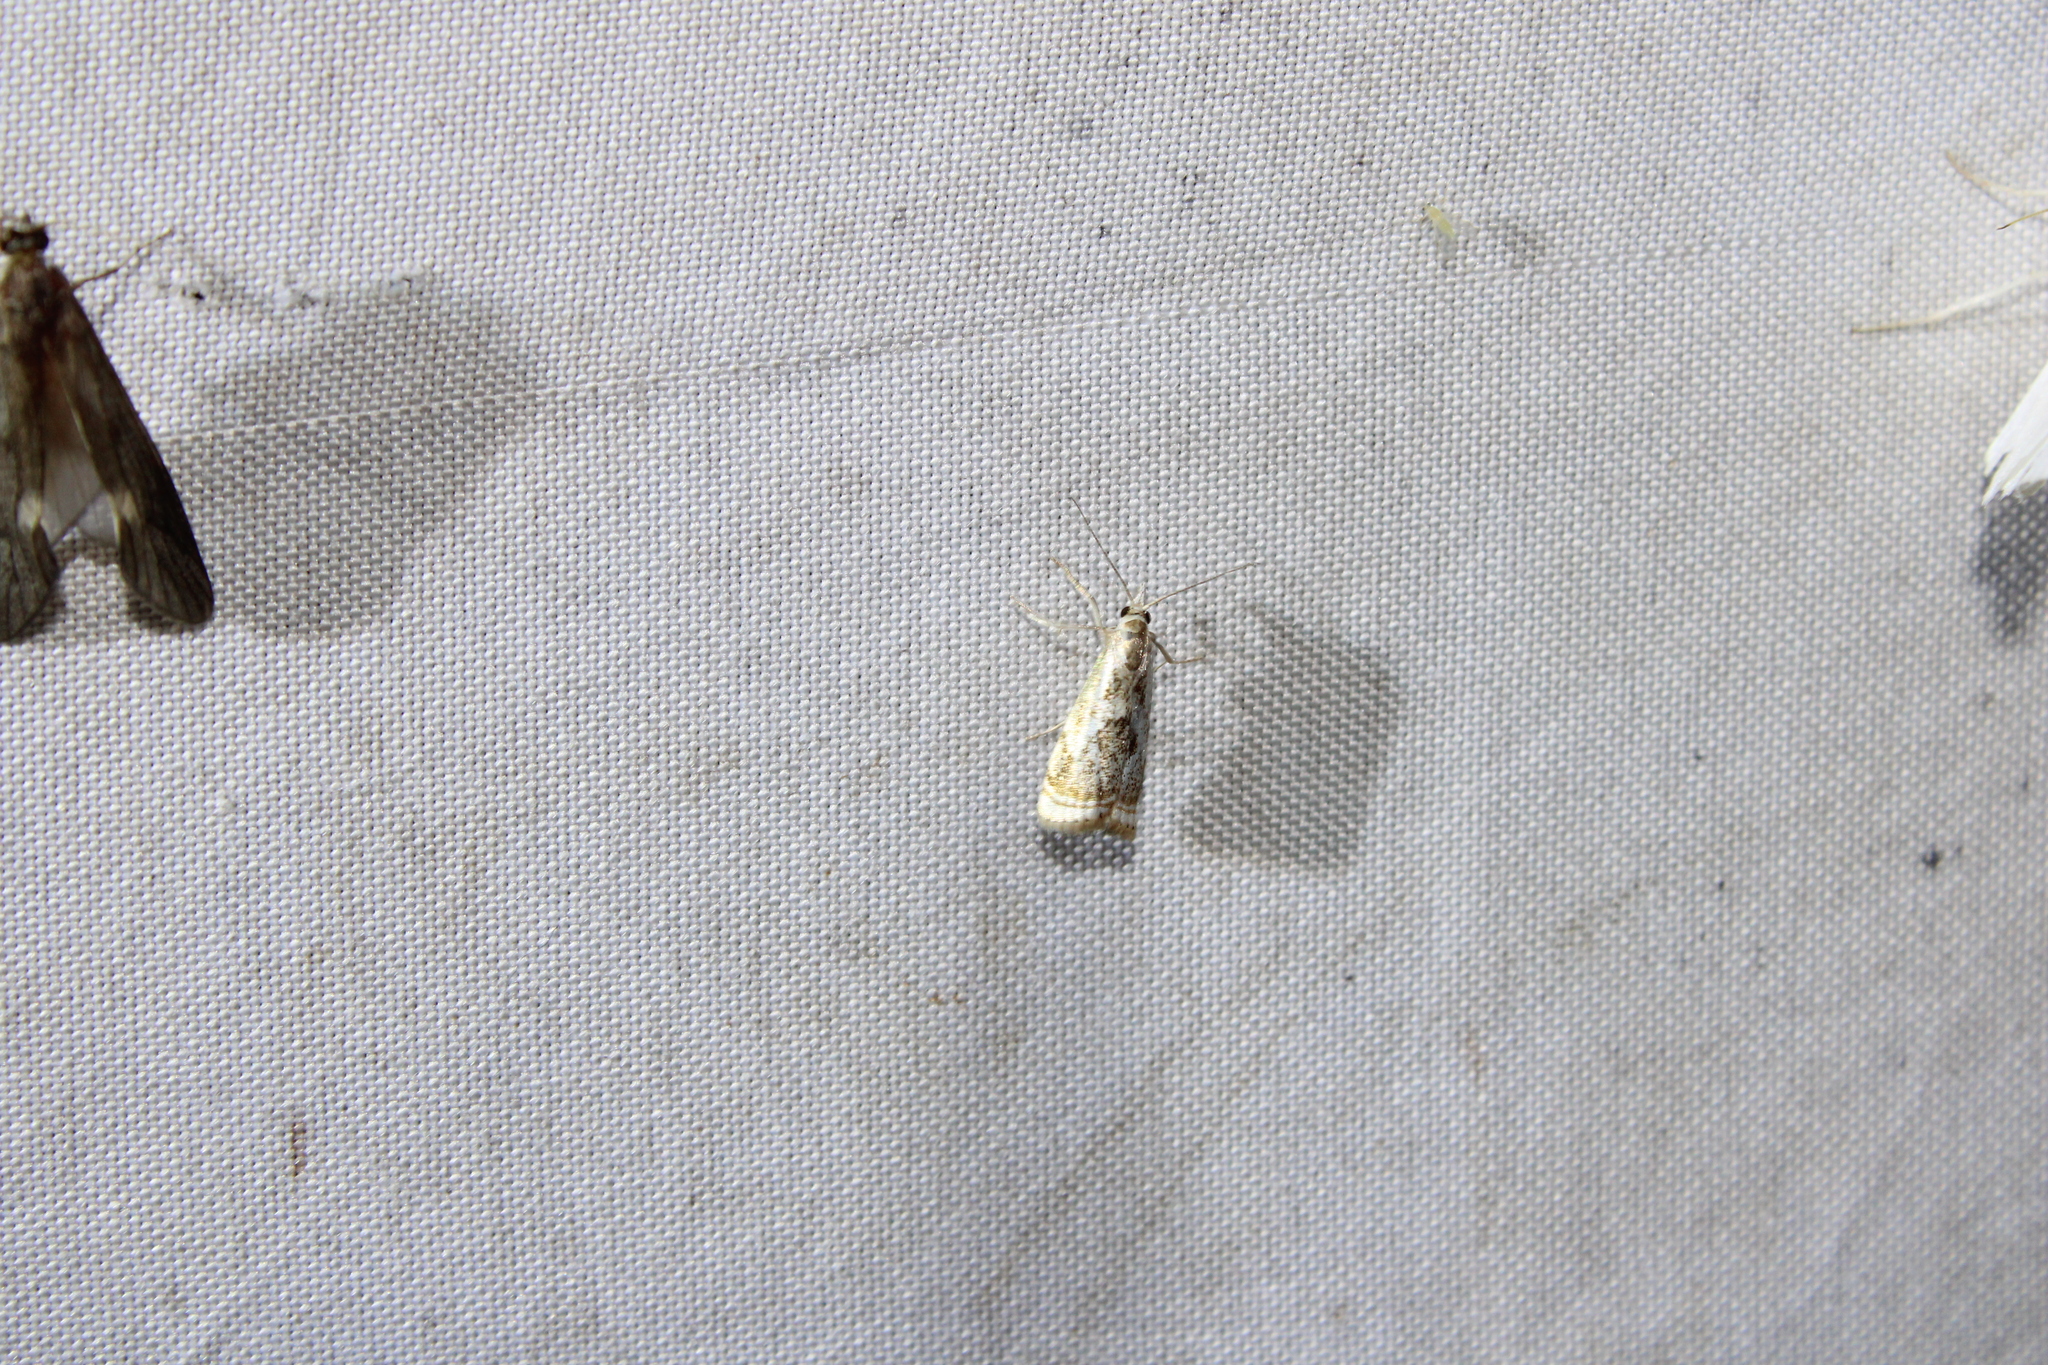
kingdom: Animalia
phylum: Arthropoda
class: Insecta
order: Lepidoptera
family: Crambidae
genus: Microcrambus
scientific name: Microcrambus elegans
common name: Elegant grass-veneer
